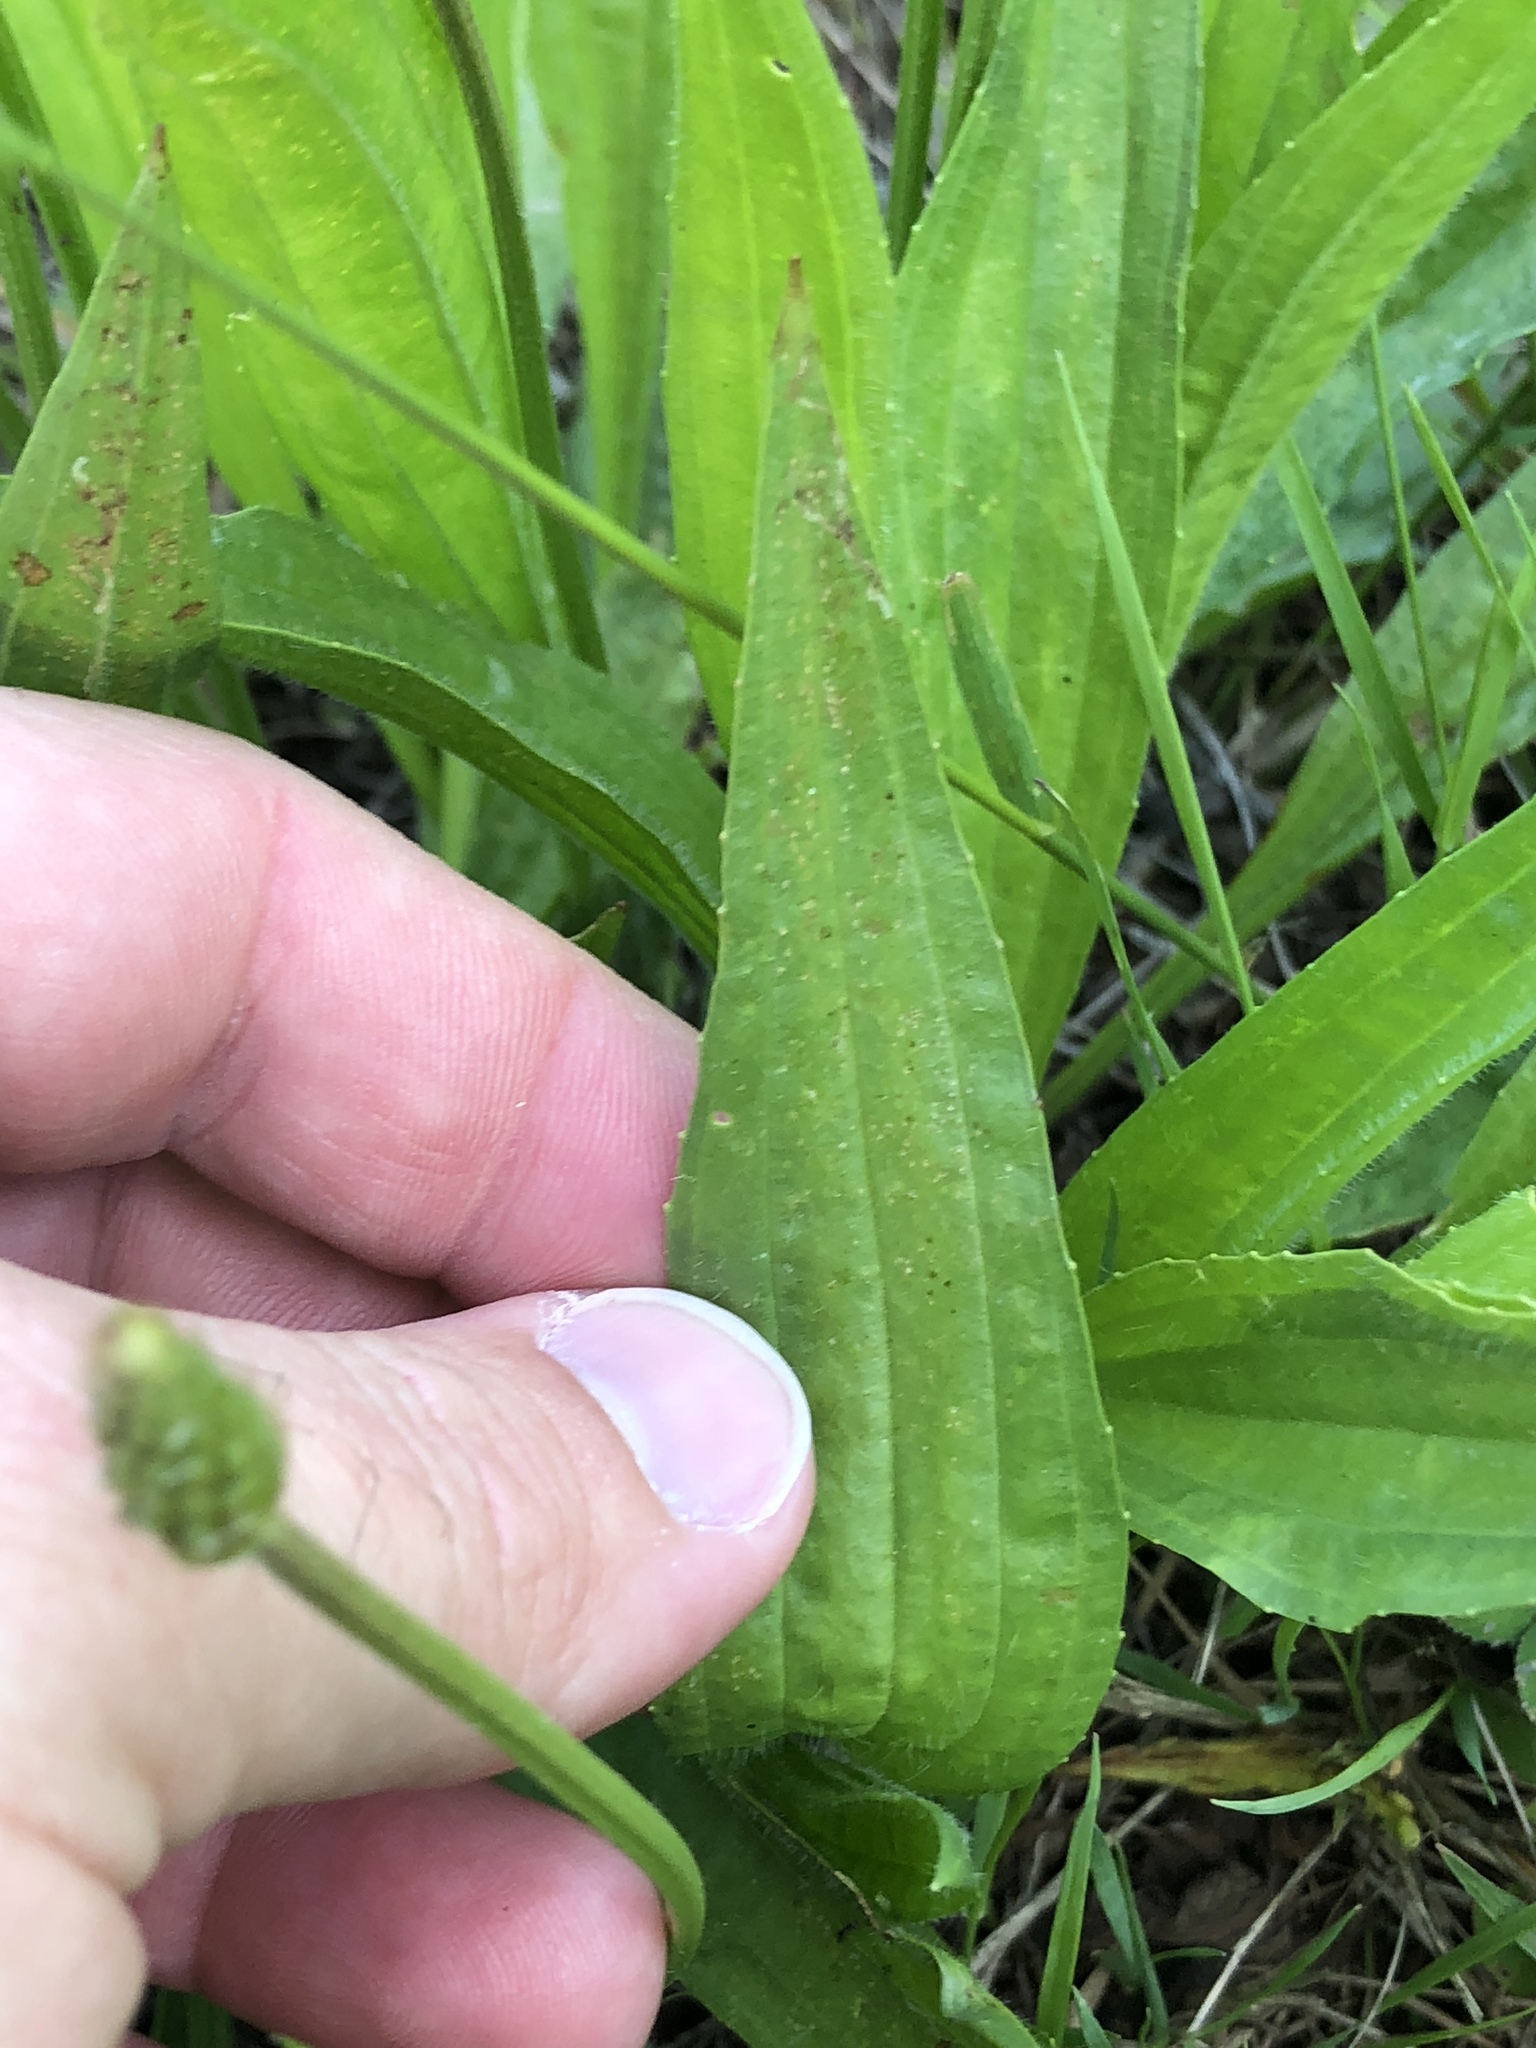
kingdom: Plantae
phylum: Tracheophyta
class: Magnoliopsida
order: Lamiales
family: Plantaginaceae
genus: Plantago
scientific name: Plantago lanceolata
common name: Ribwort plantain
